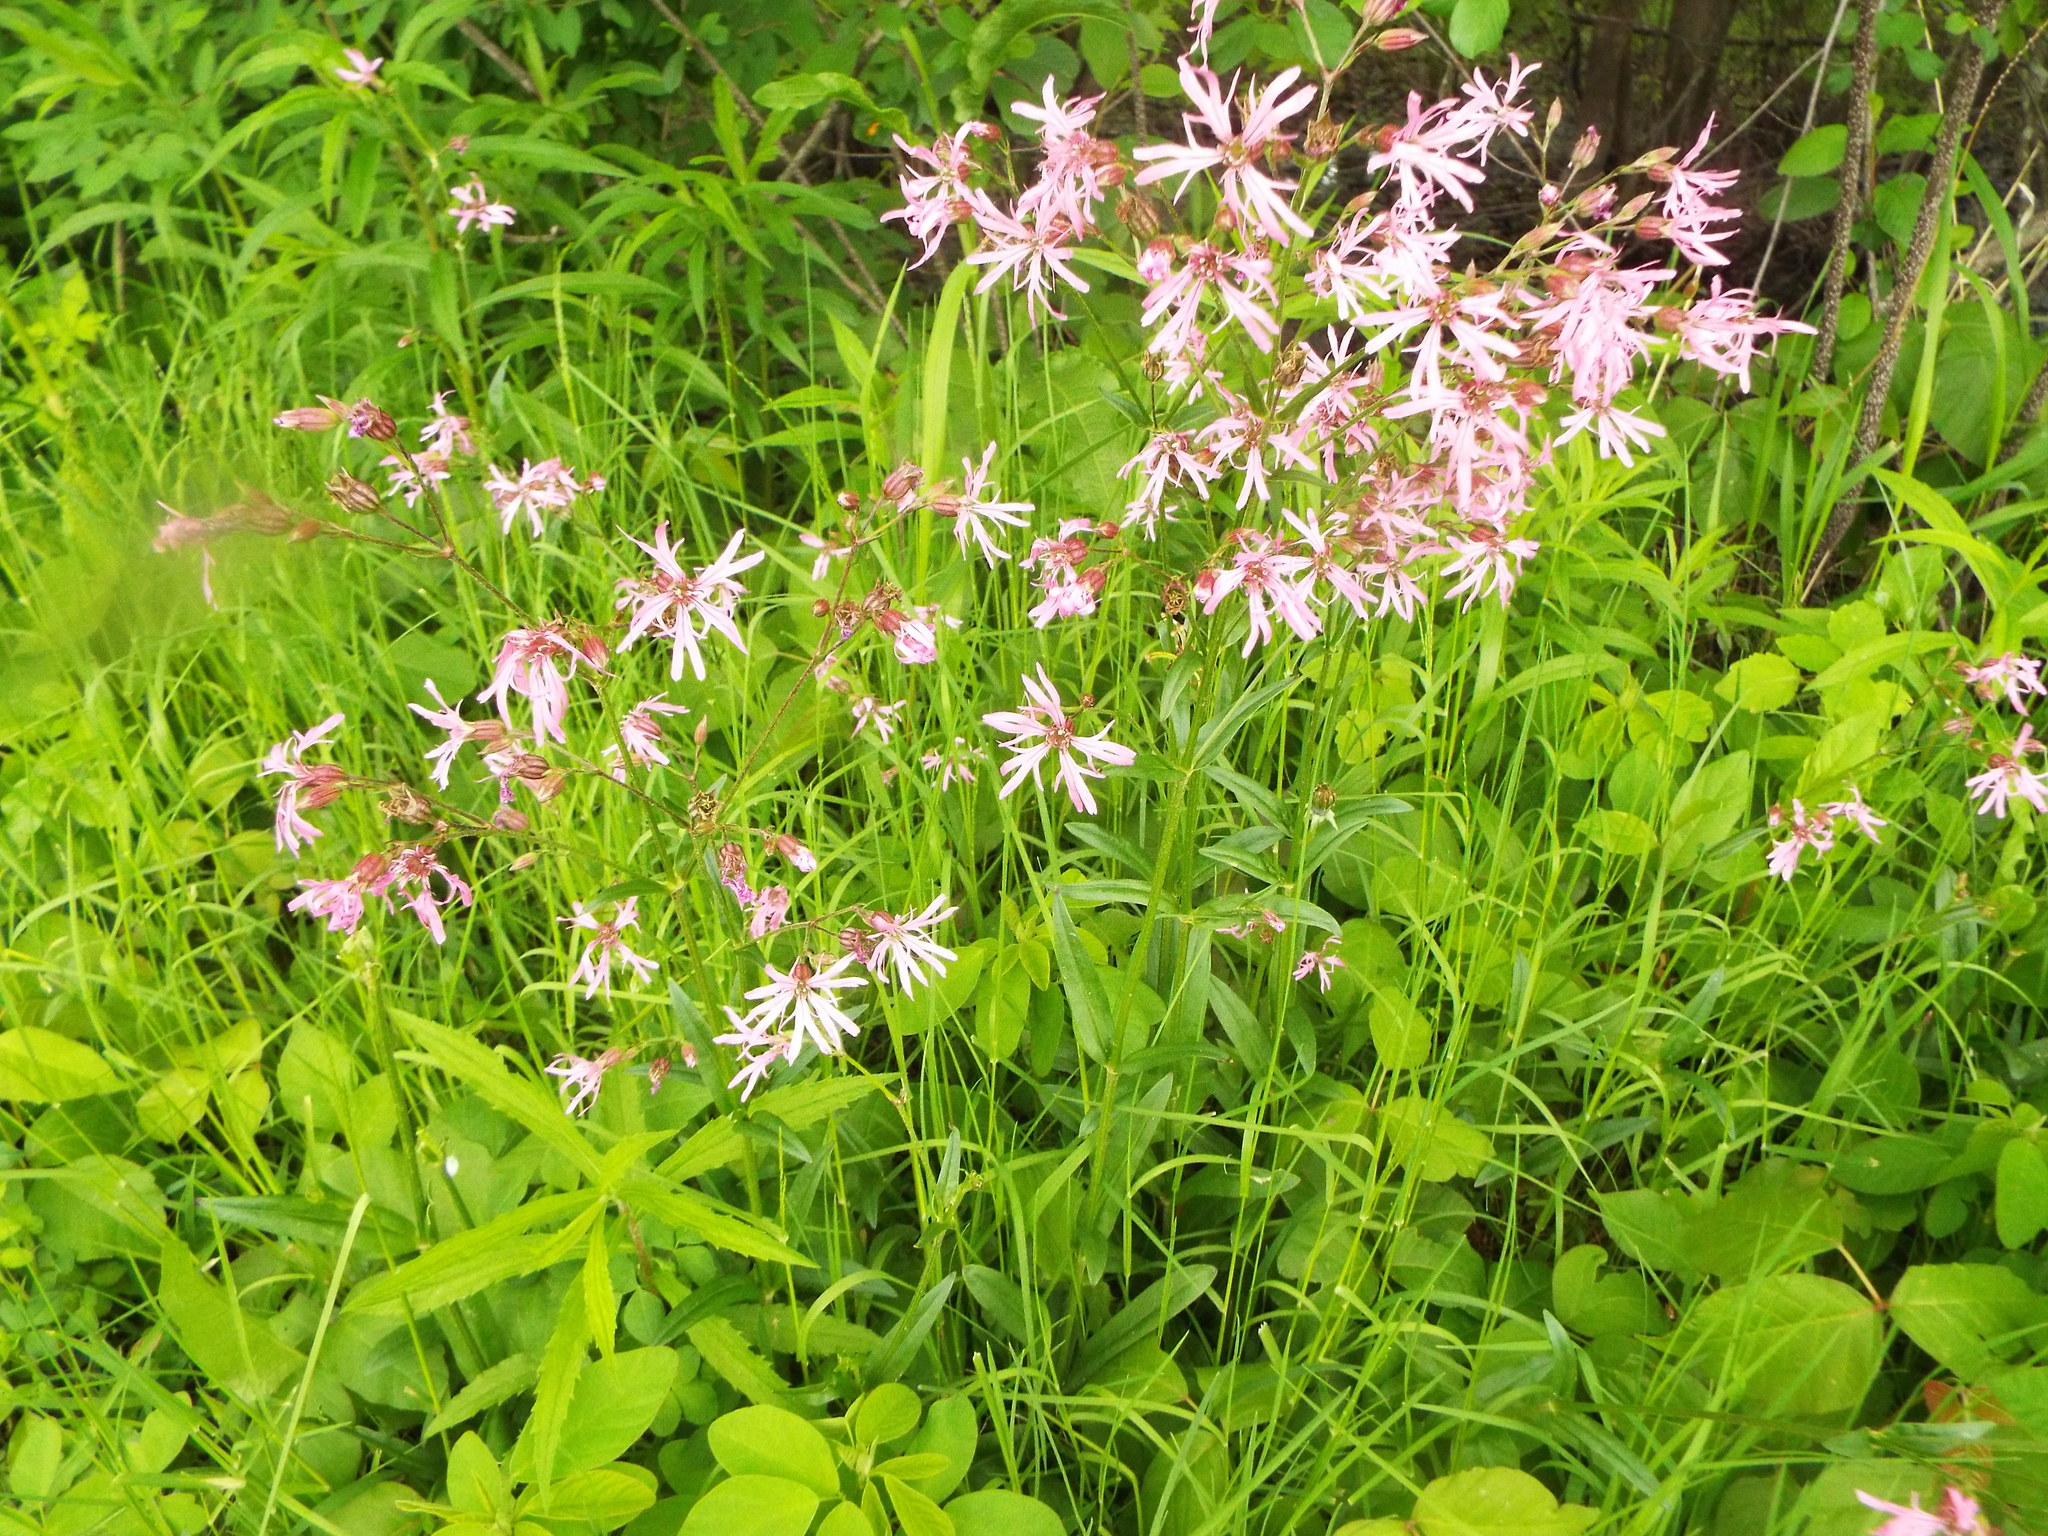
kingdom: Plantae
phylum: Tracheophyta
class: Magnoliopsida
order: Caryophyllales
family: Caryophyllaceae
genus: Silene
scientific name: Silene flos-cuculi
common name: Ragged-robin
